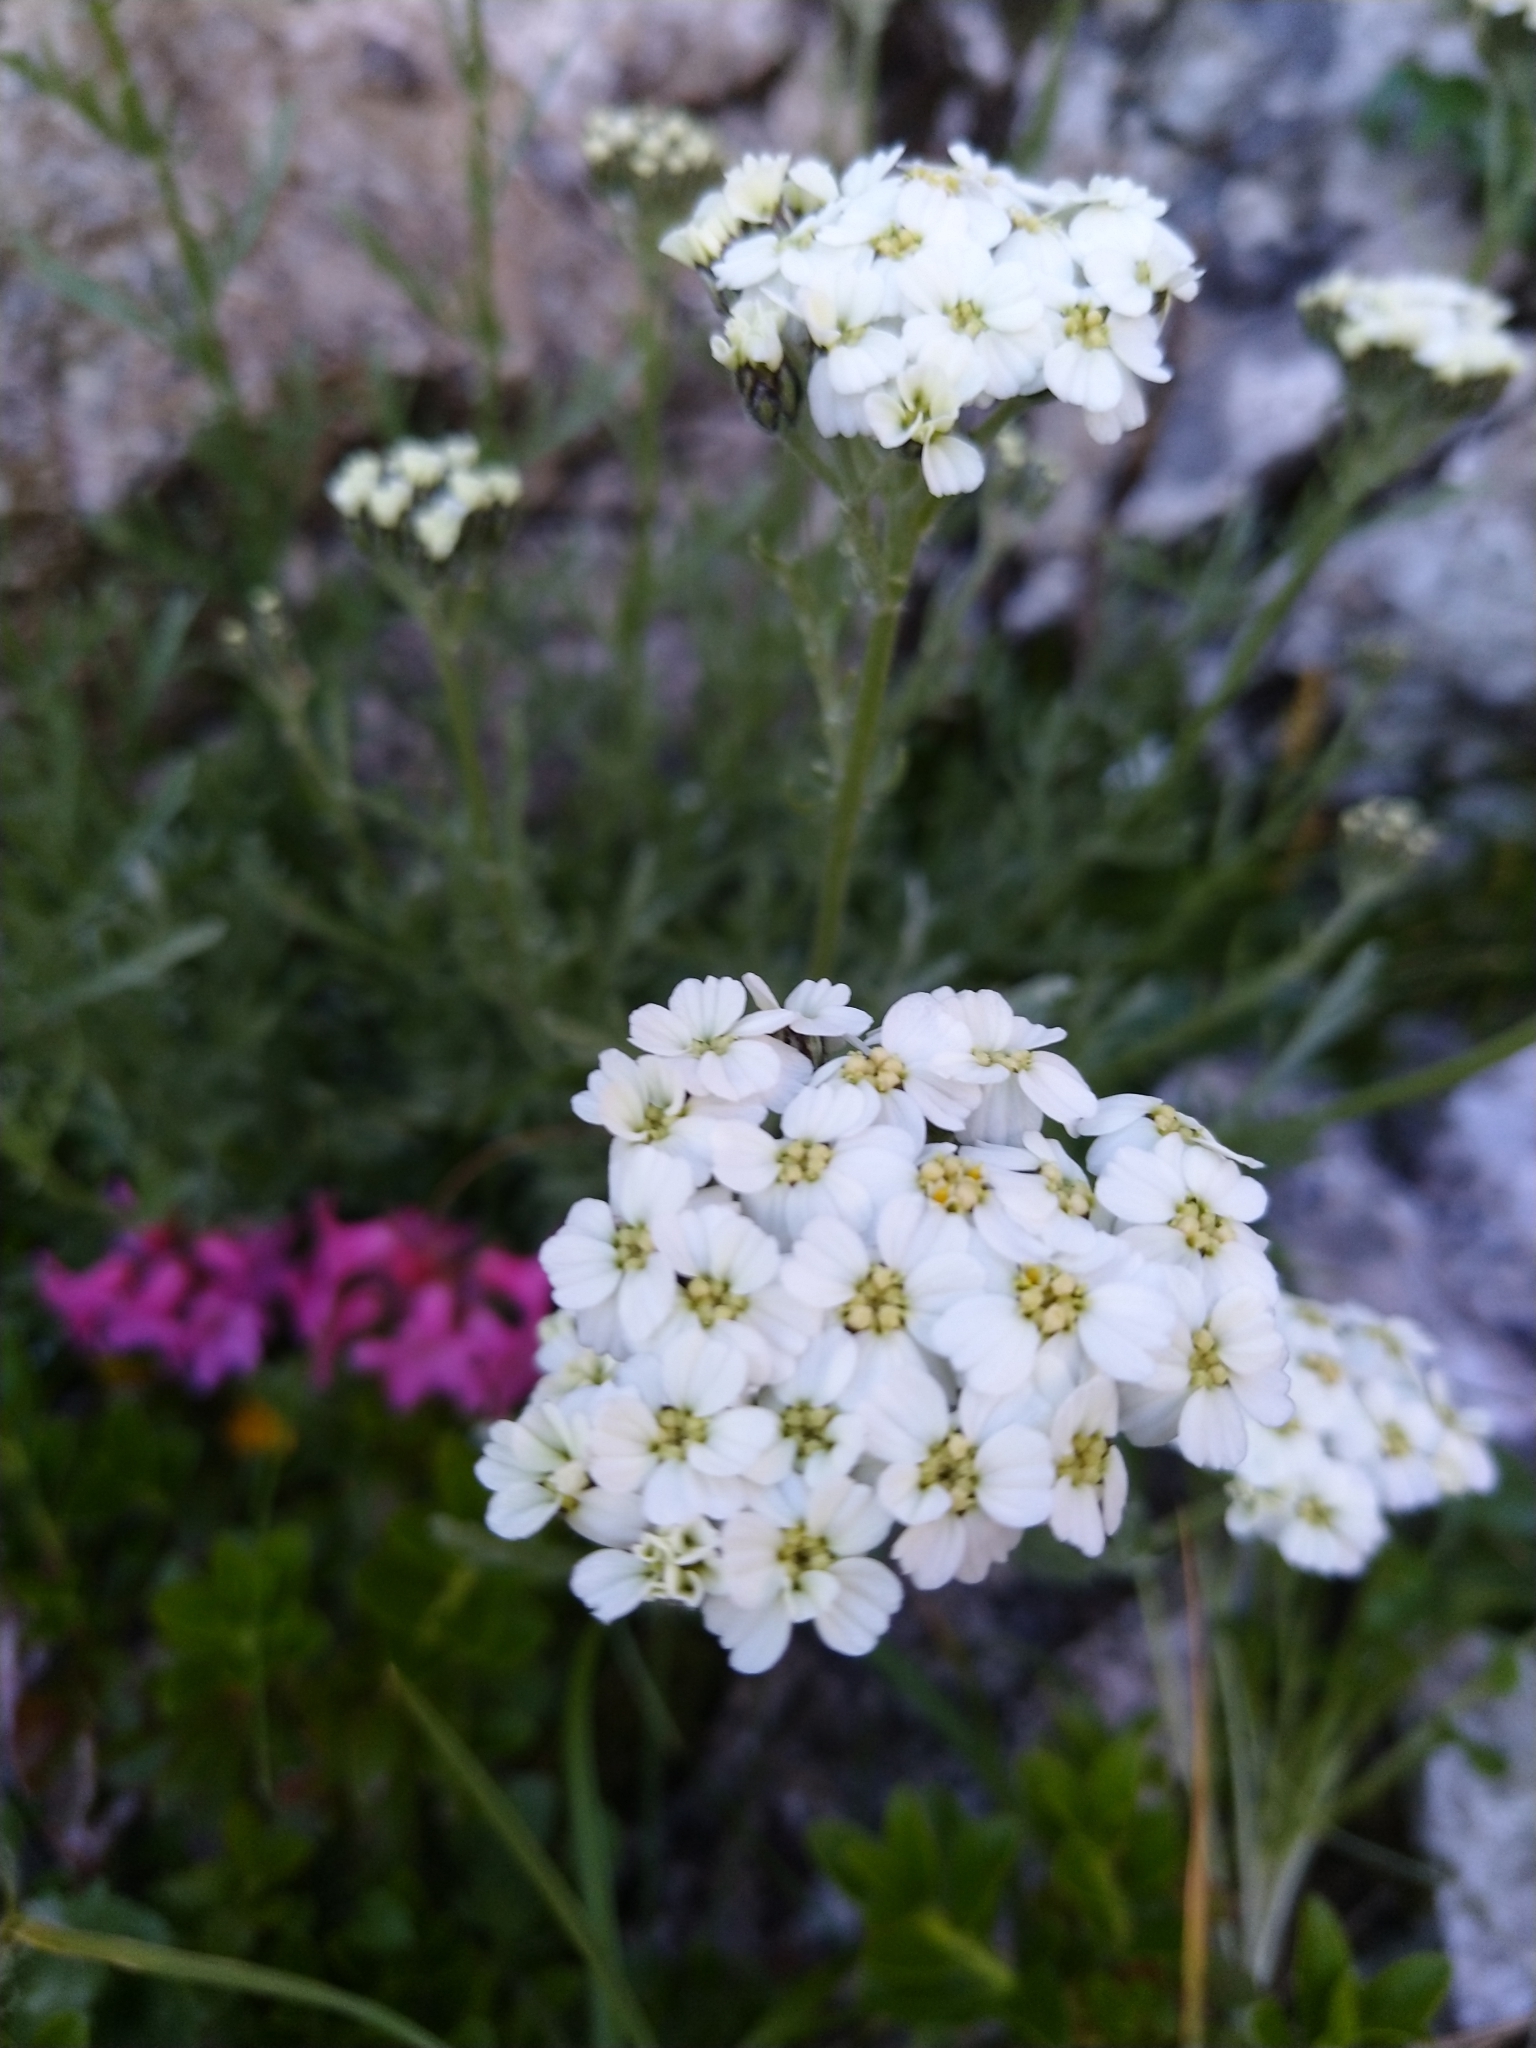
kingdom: Plantae
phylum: Tracheophyta
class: Magnoliopsida
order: Asterales
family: Asteraceae
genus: Achillea
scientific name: Achillea clavennae
